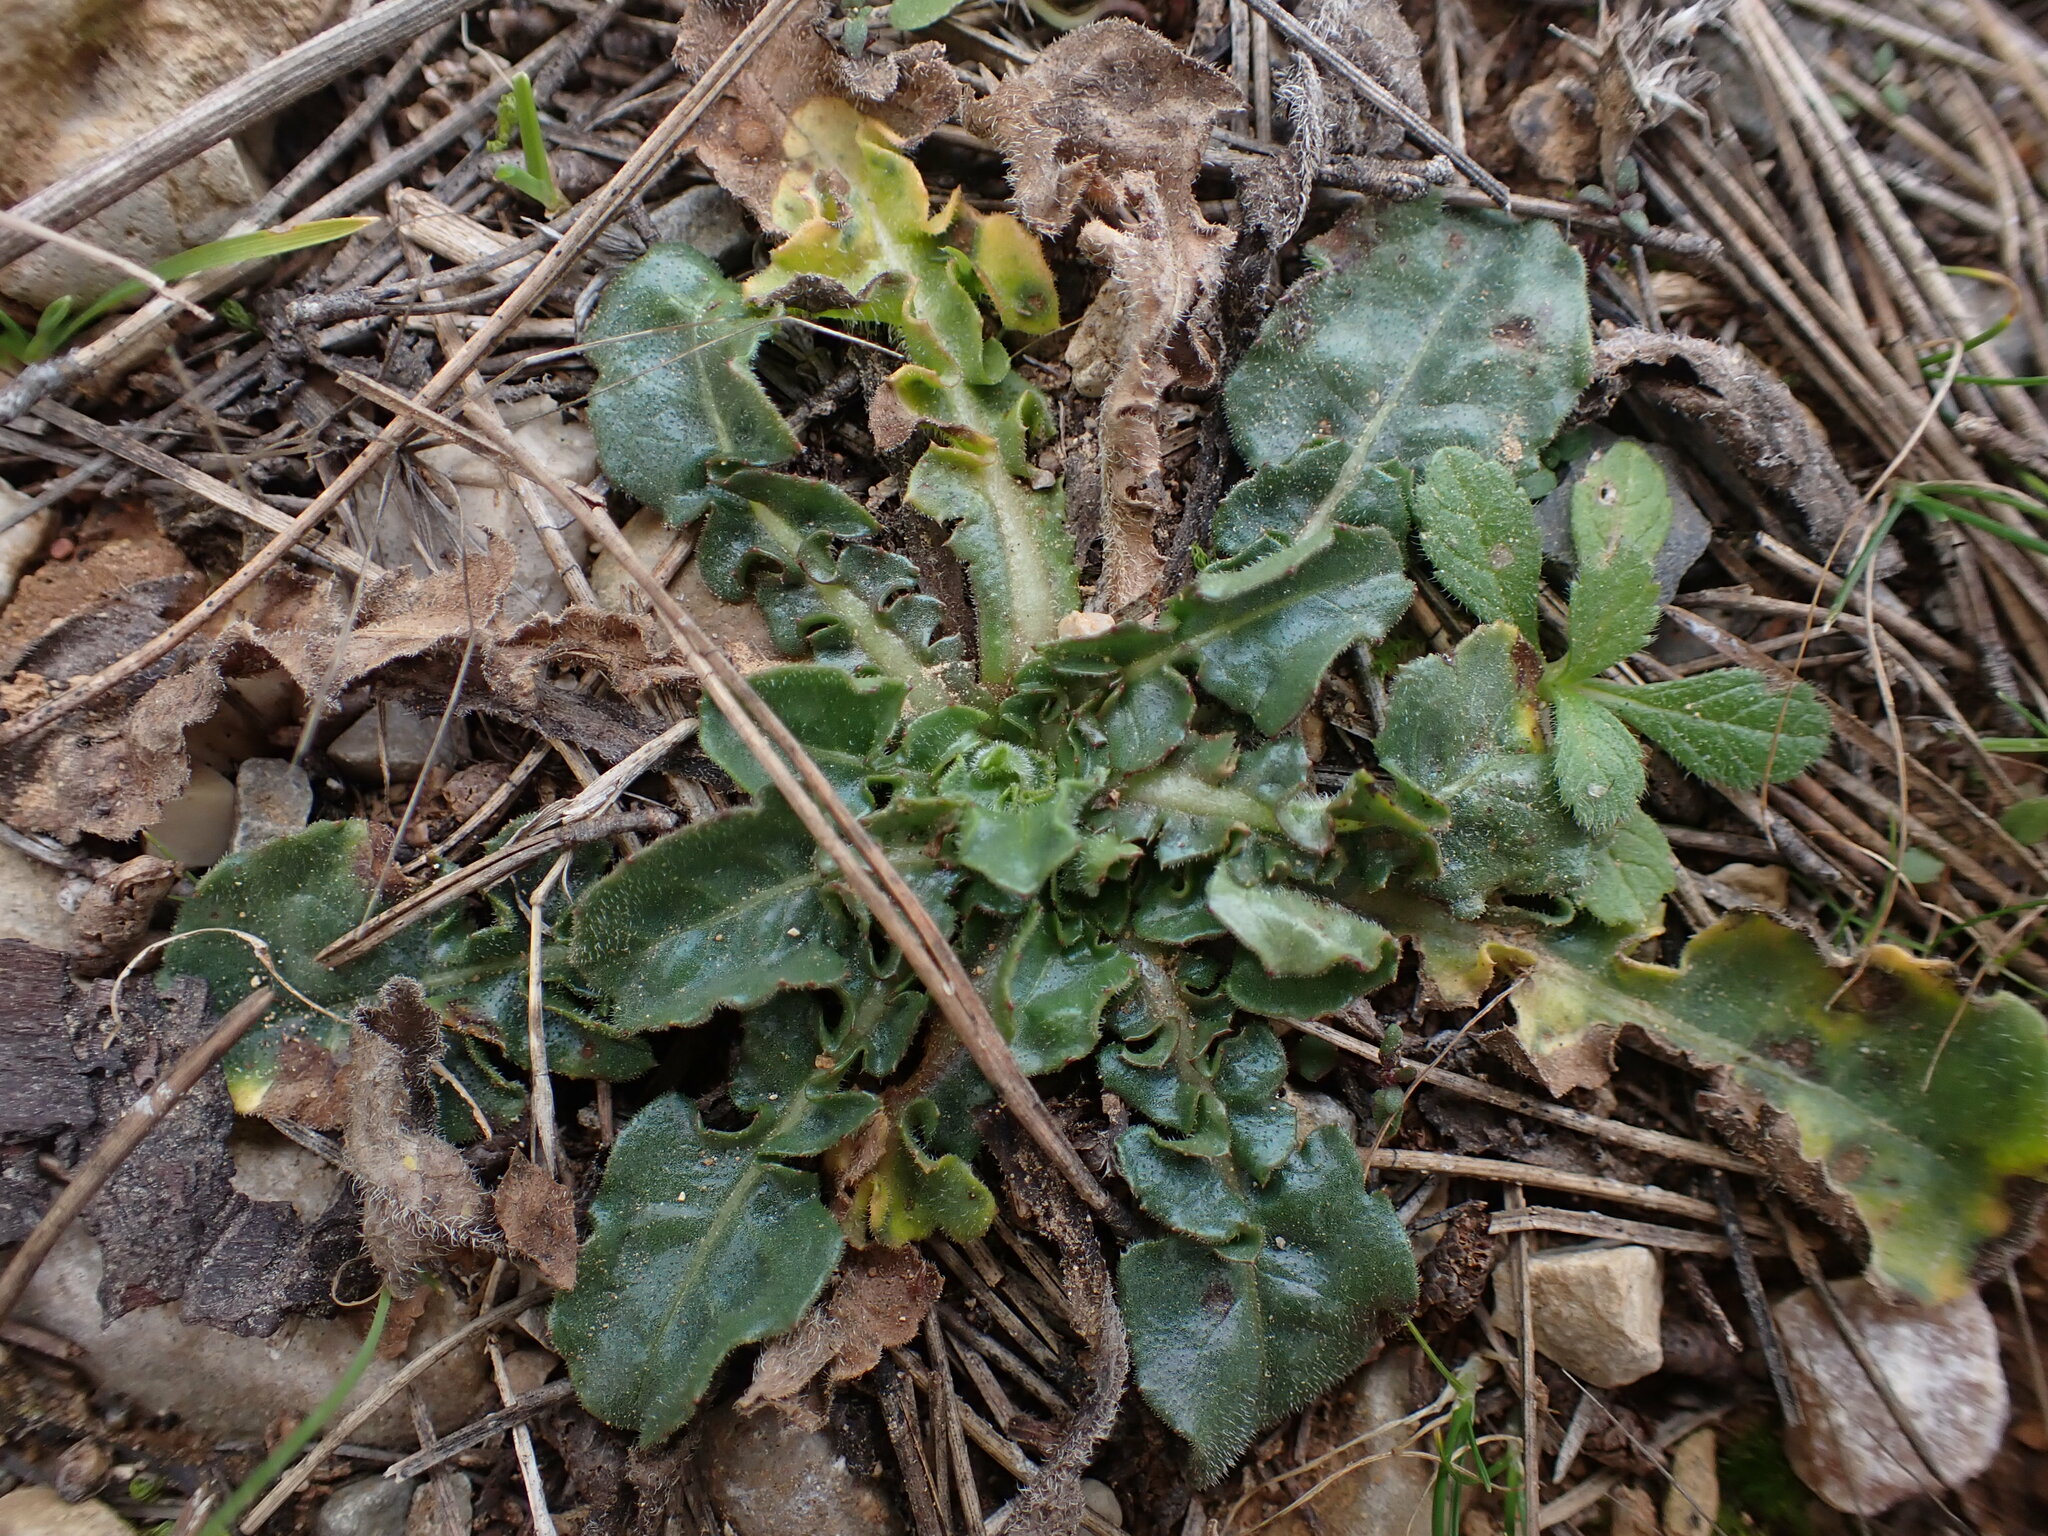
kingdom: Plantae
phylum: Tracheophyta
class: Magnoliopsida
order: Asterales
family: Asteraceae
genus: Urospermum
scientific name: Urospermum dalechampii
